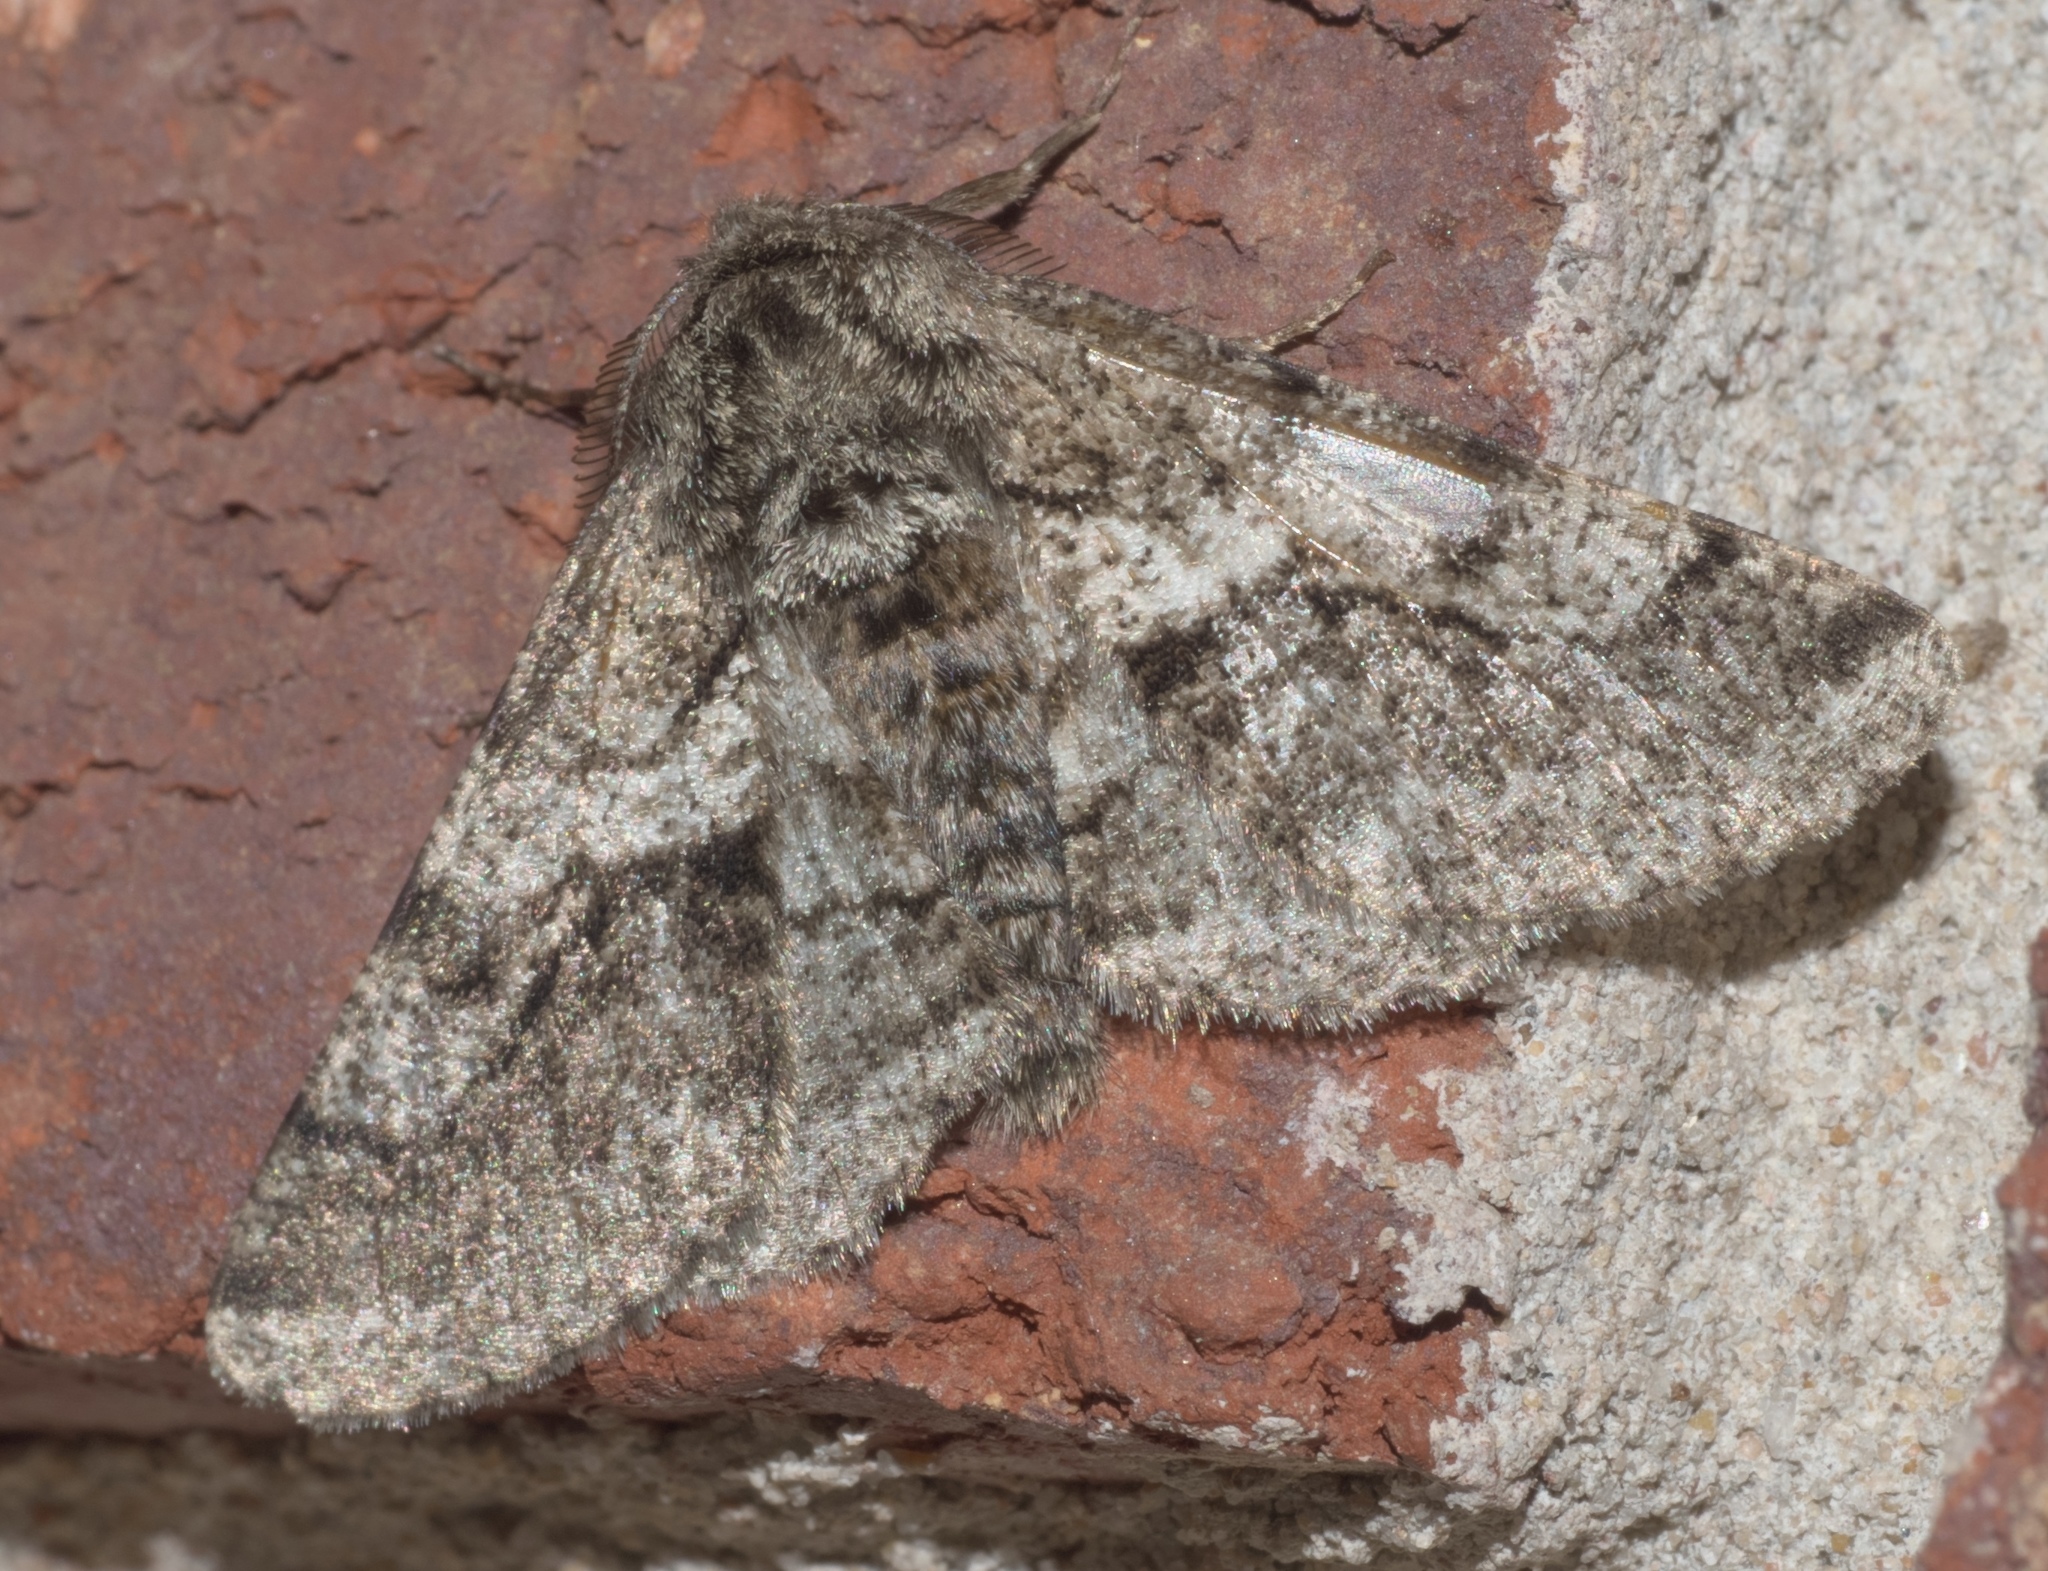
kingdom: Animalia
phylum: Arthropoda
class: Insecta
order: Lepidoptera
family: Geometridae
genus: Lycia
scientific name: Lycia ypsilon
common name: Wooly gray
